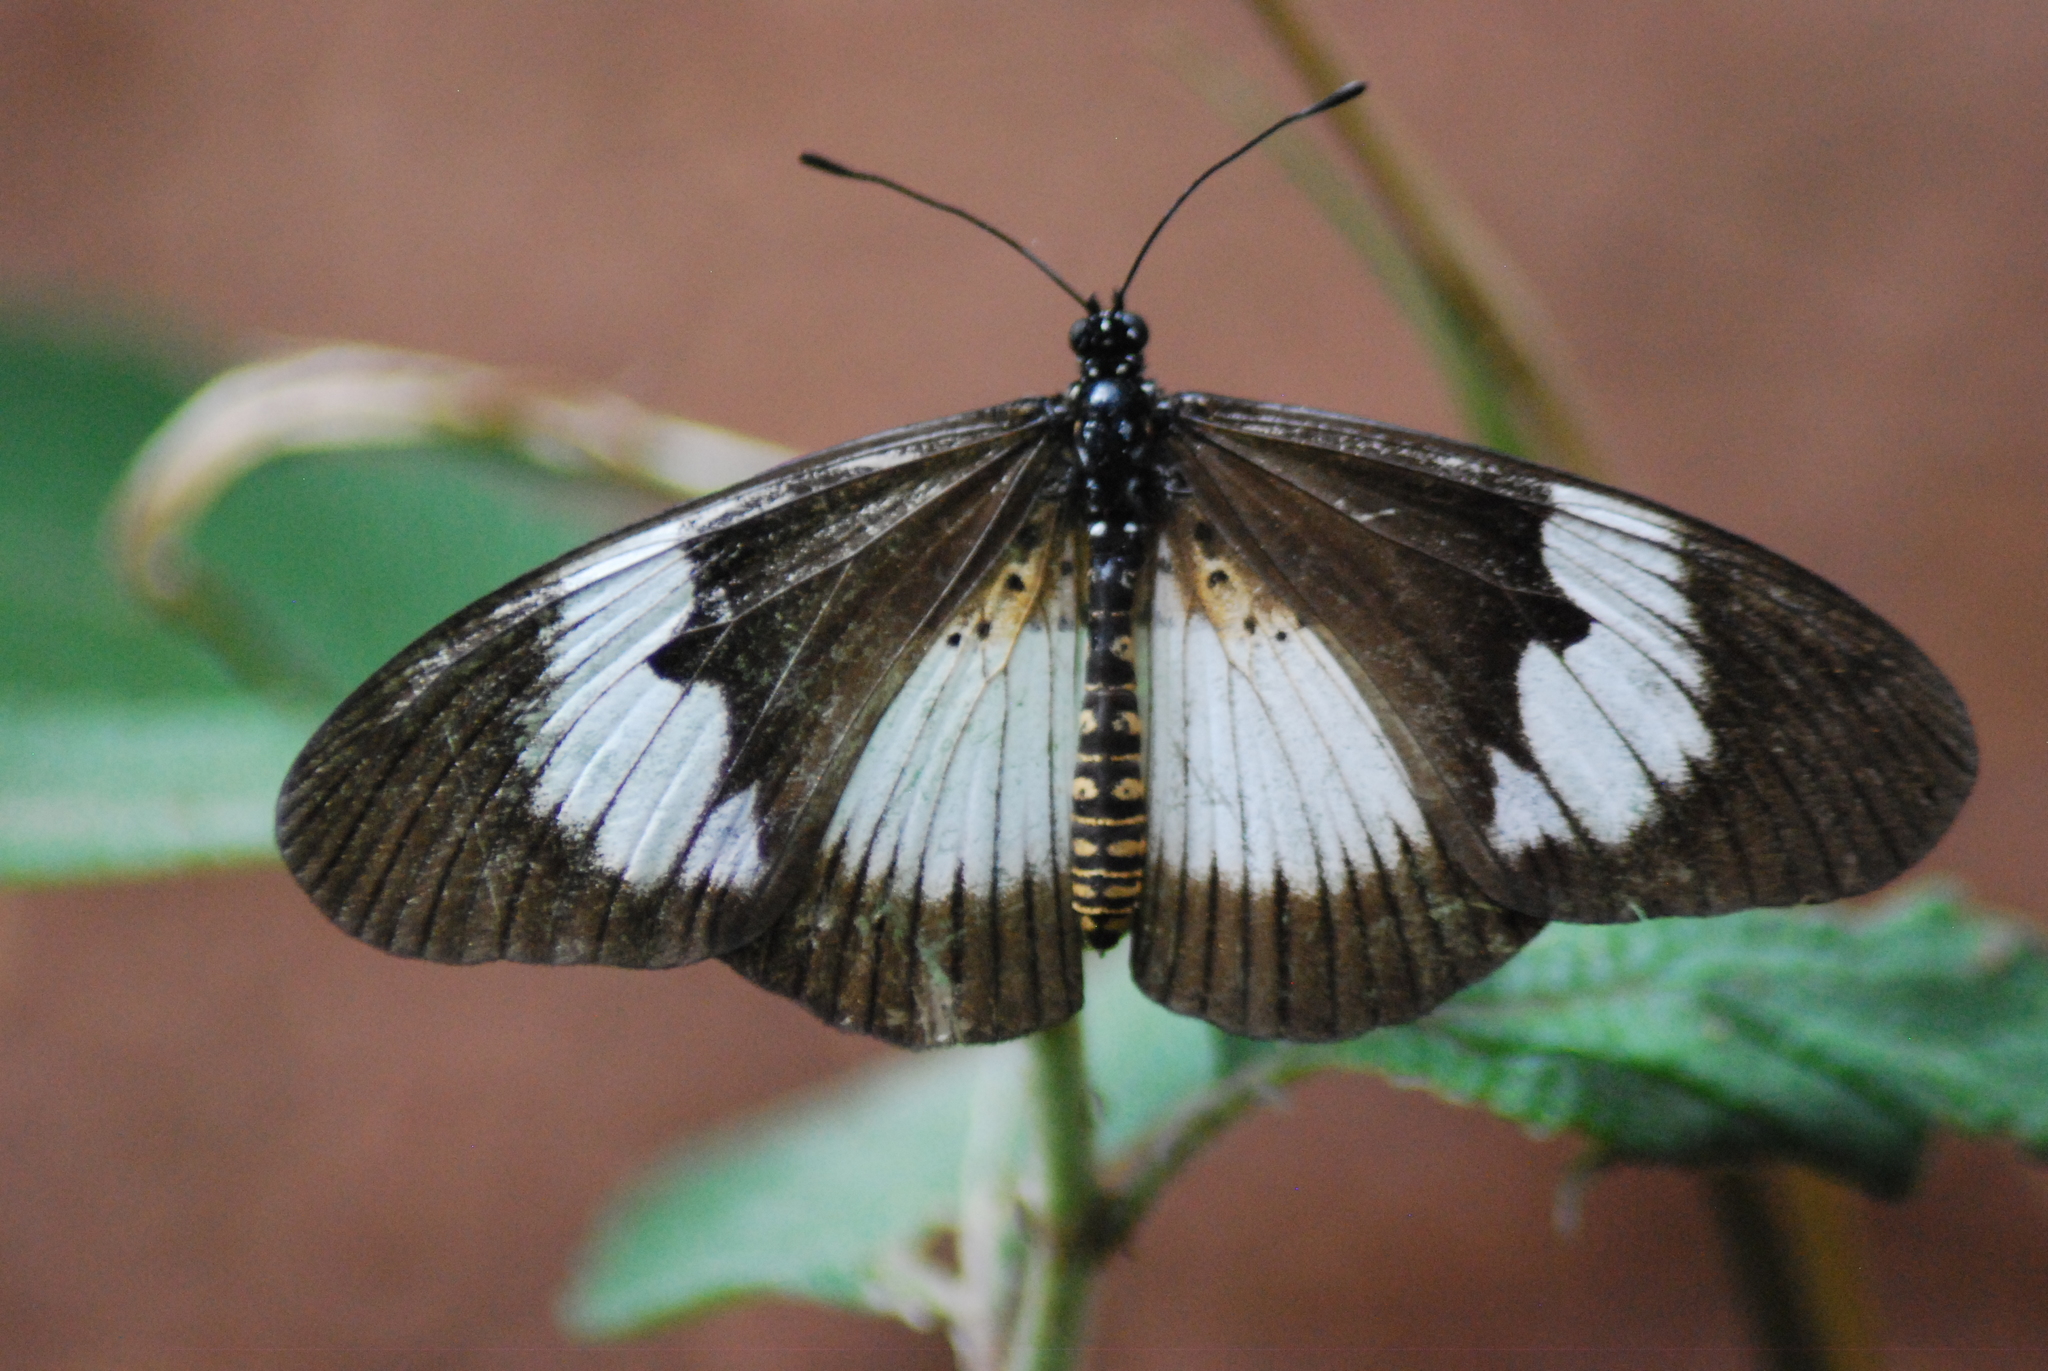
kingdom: Animalia
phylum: Arthropoda
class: Insecta
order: Lepidoptera
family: Nymphalidae
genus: Acraea
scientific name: Acraea Bematistes aganice
